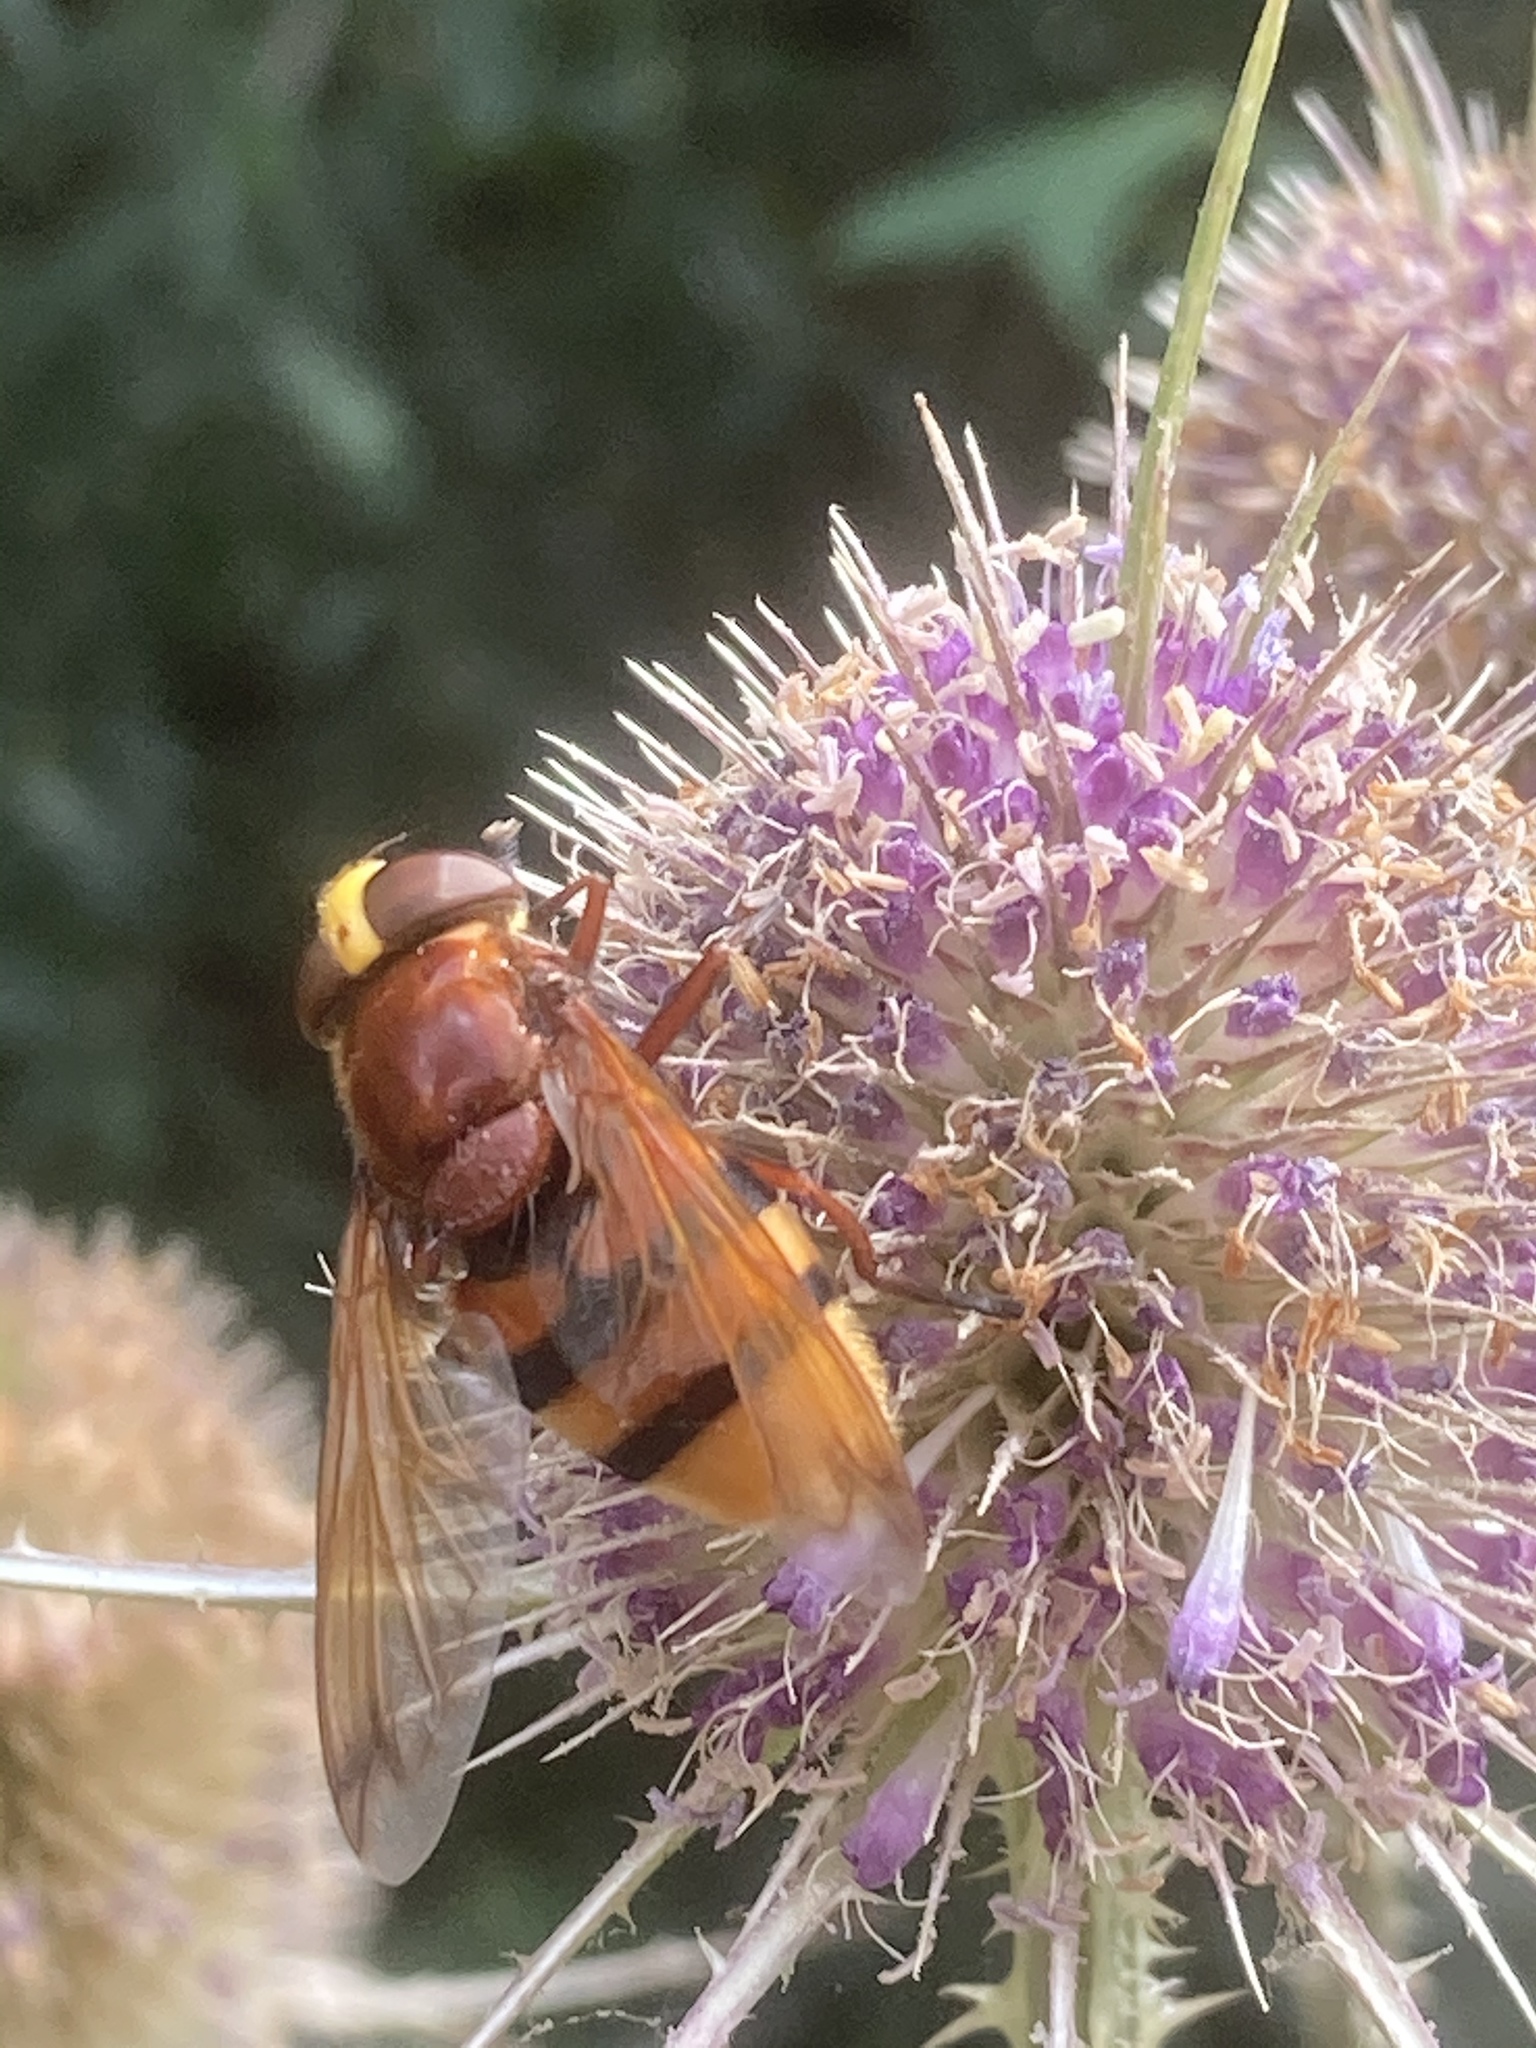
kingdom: Animalia
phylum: Arthropoda
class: Insecta
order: Diptera
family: Syrphidae
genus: Volucella
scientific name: Volucella zonaria
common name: Hornet hoverfly
